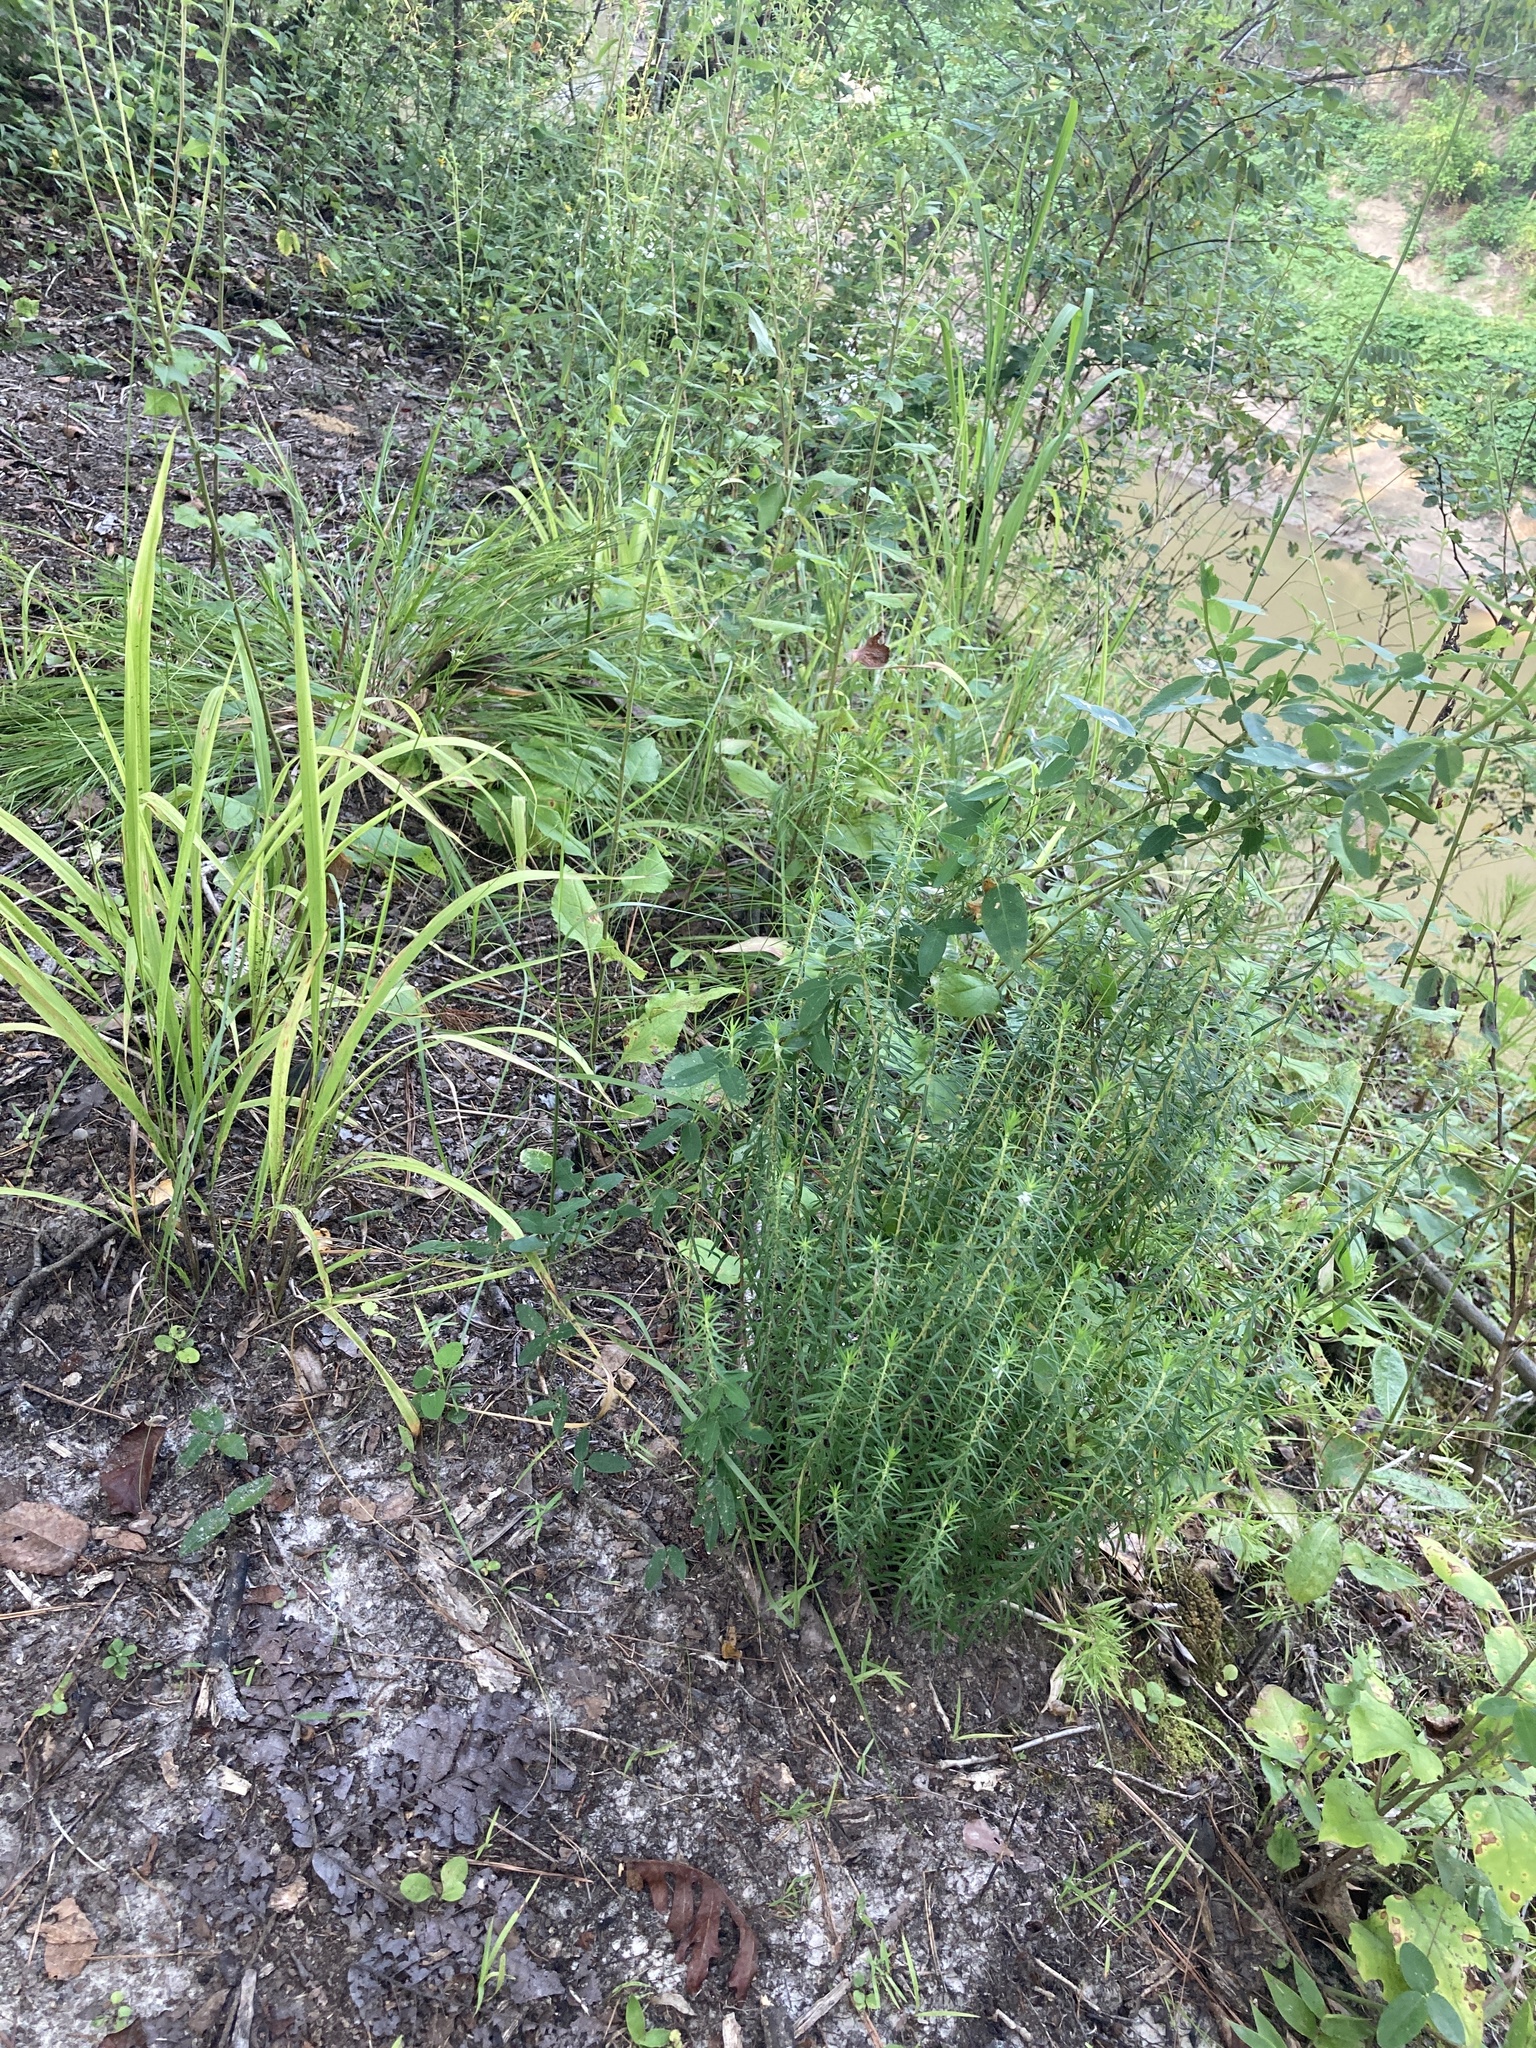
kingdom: Plantae
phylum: Tracheophyta
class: Magnoliopsida
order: Asterales
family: Asteraceae
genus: Ionactis
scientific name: Ionactis repens
